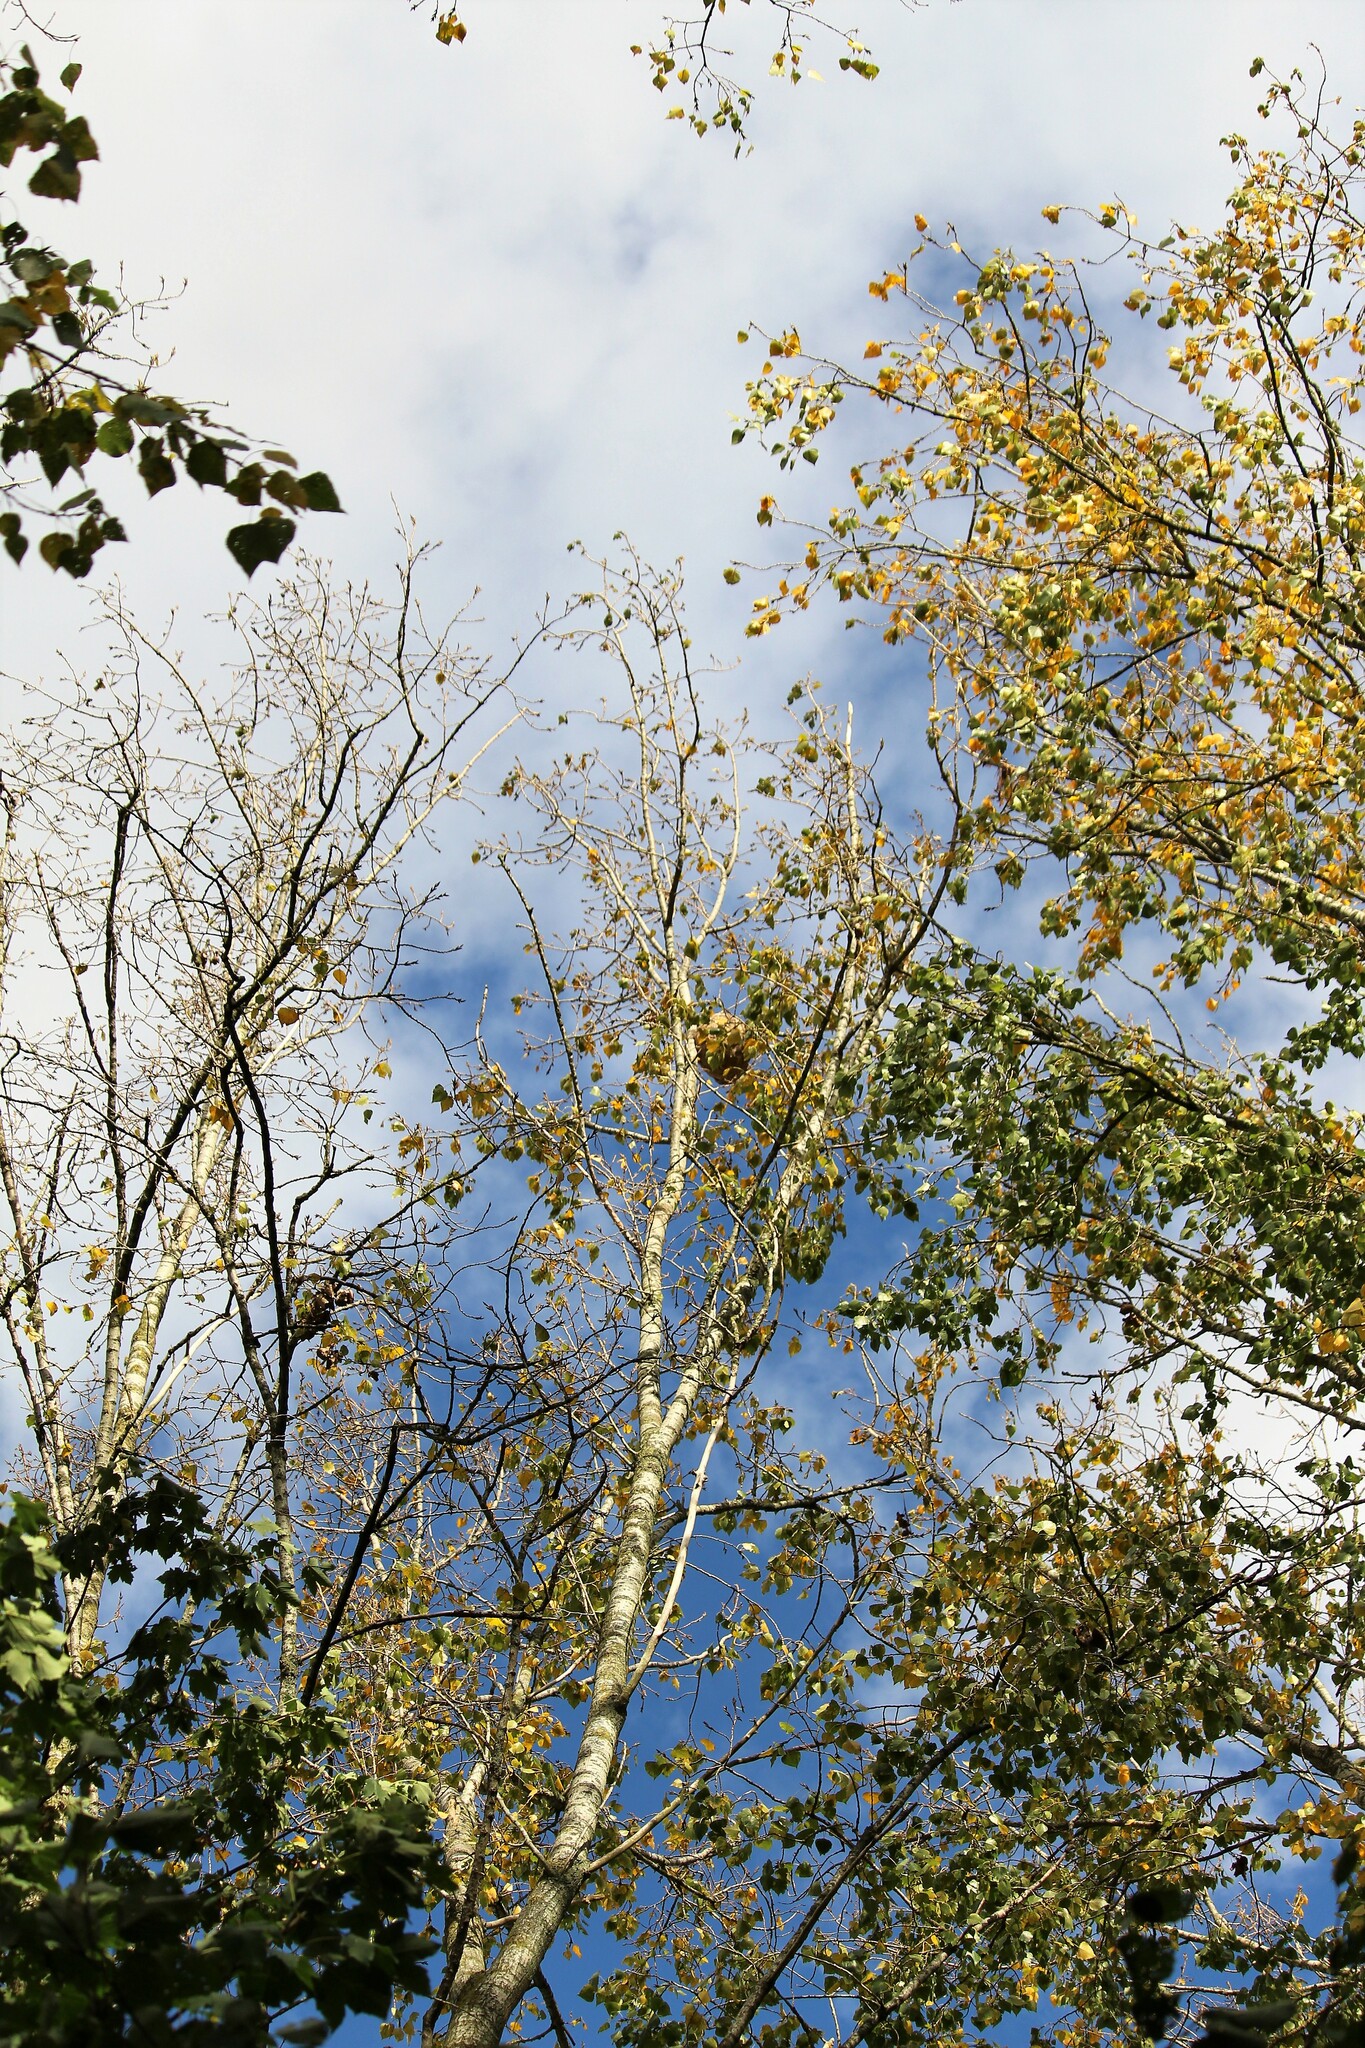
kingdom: Animalia
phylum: Arthropoda
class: Insecta
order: Hymenoptera
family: Vespidae
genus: Vespa
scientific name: Vespa velutina
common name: Asian hornet
